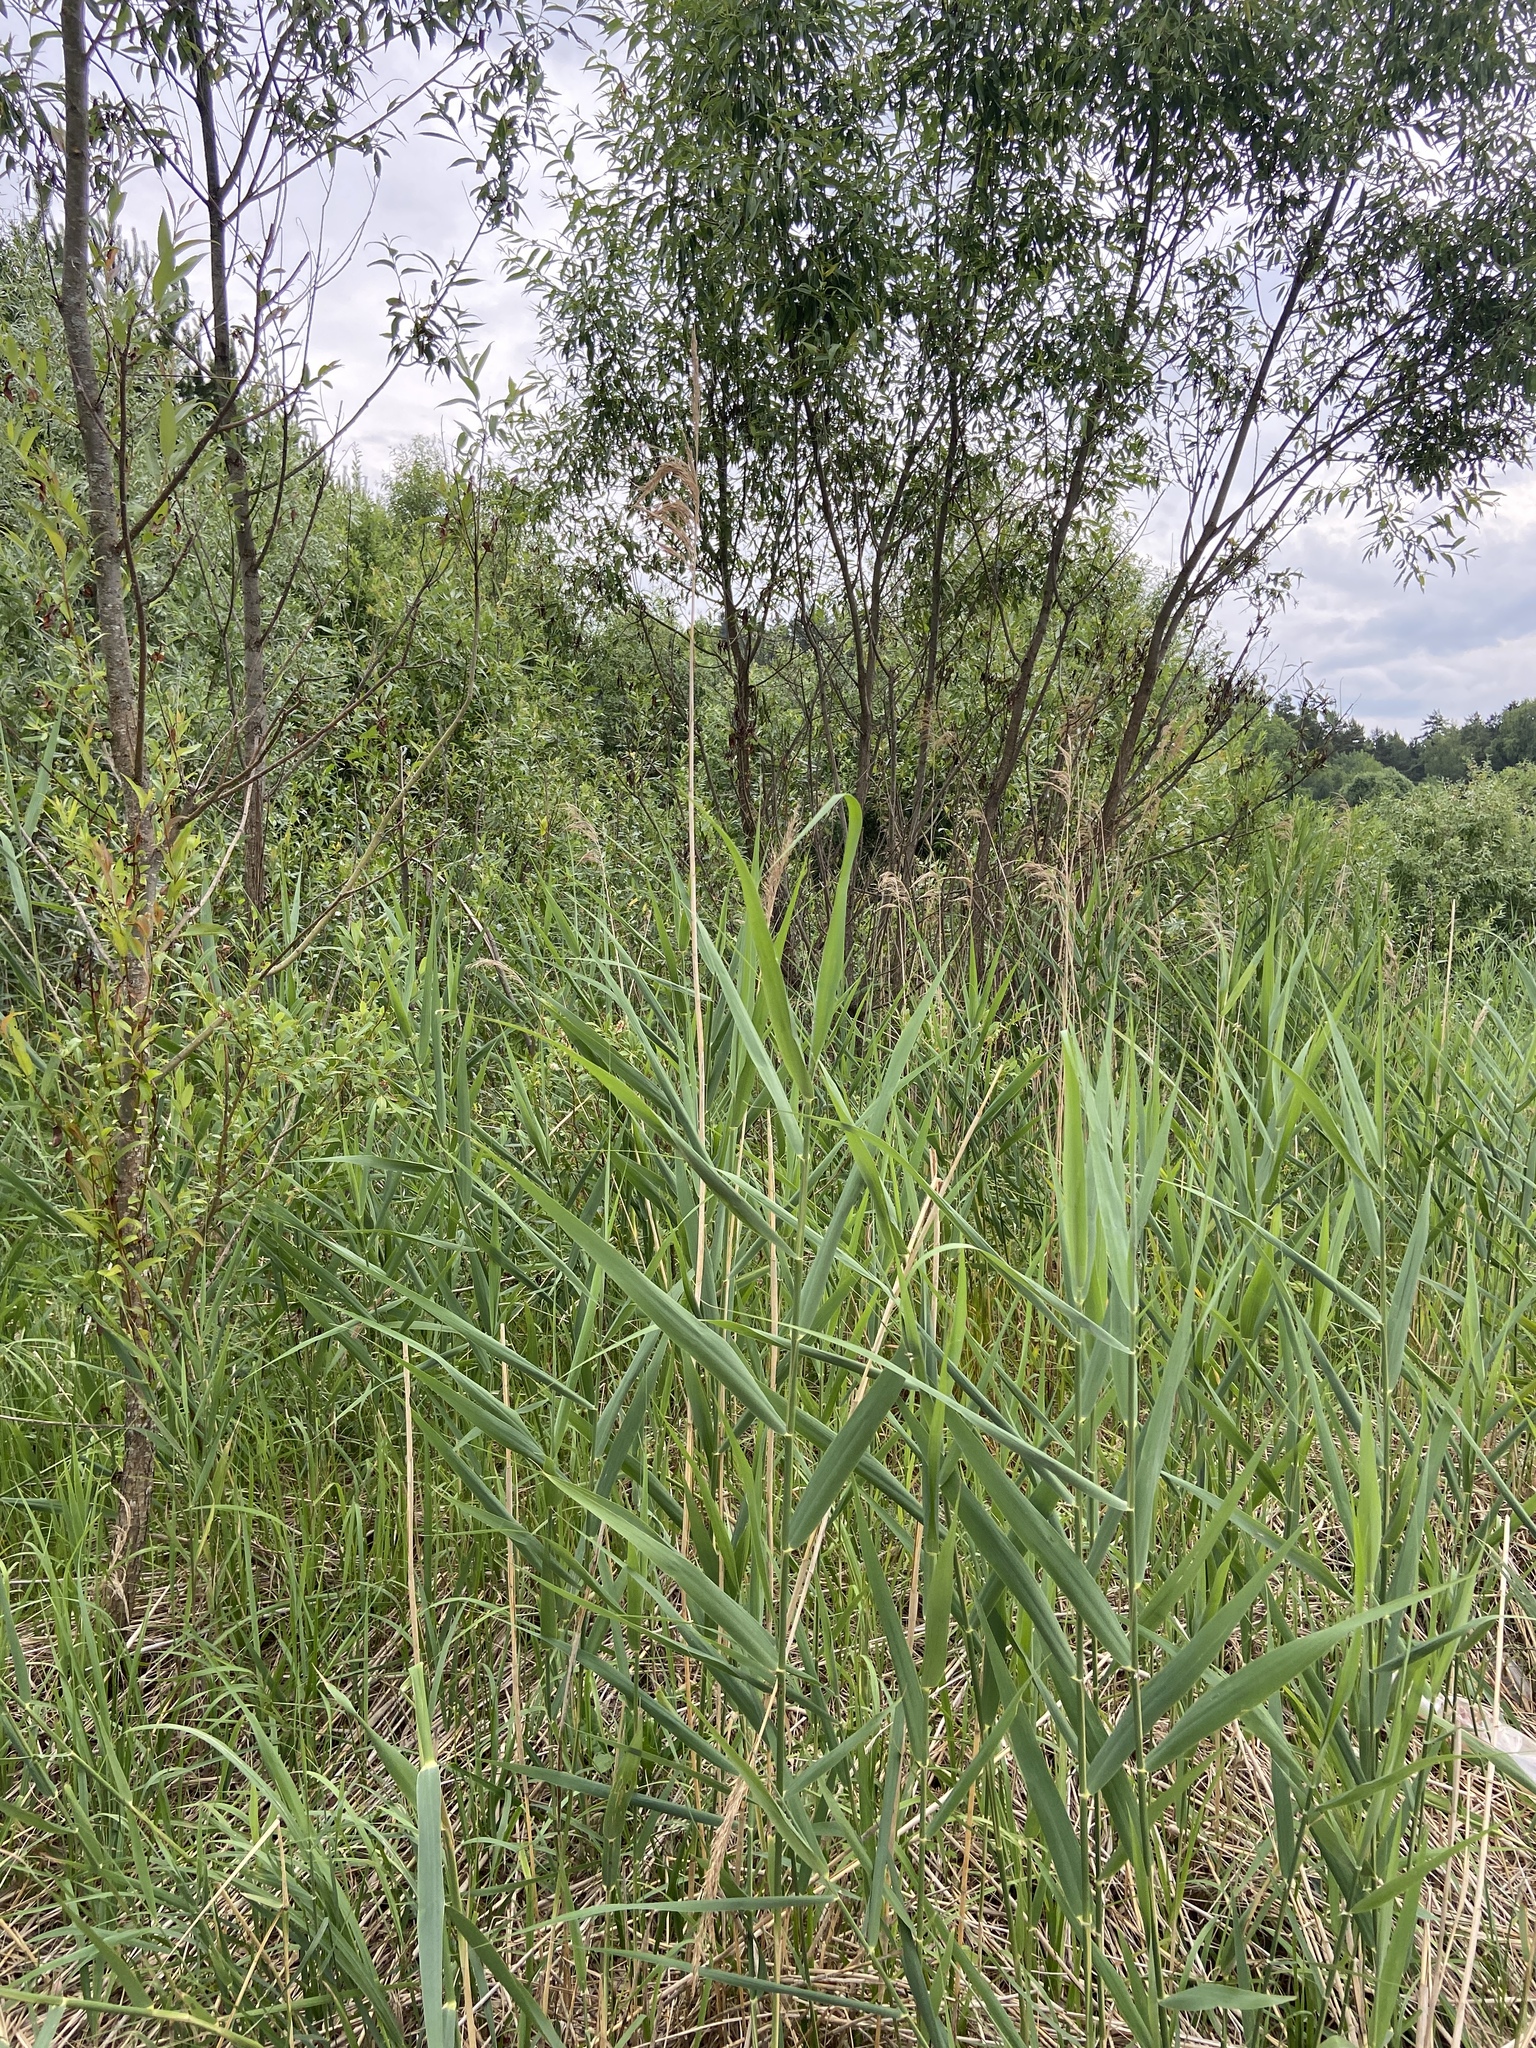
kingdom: Plantae
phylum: Tracheophyta
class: Liliopsida
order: Poales
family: Poaceae
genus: Phragmites
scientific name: Phragmites australis
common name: Common reed
